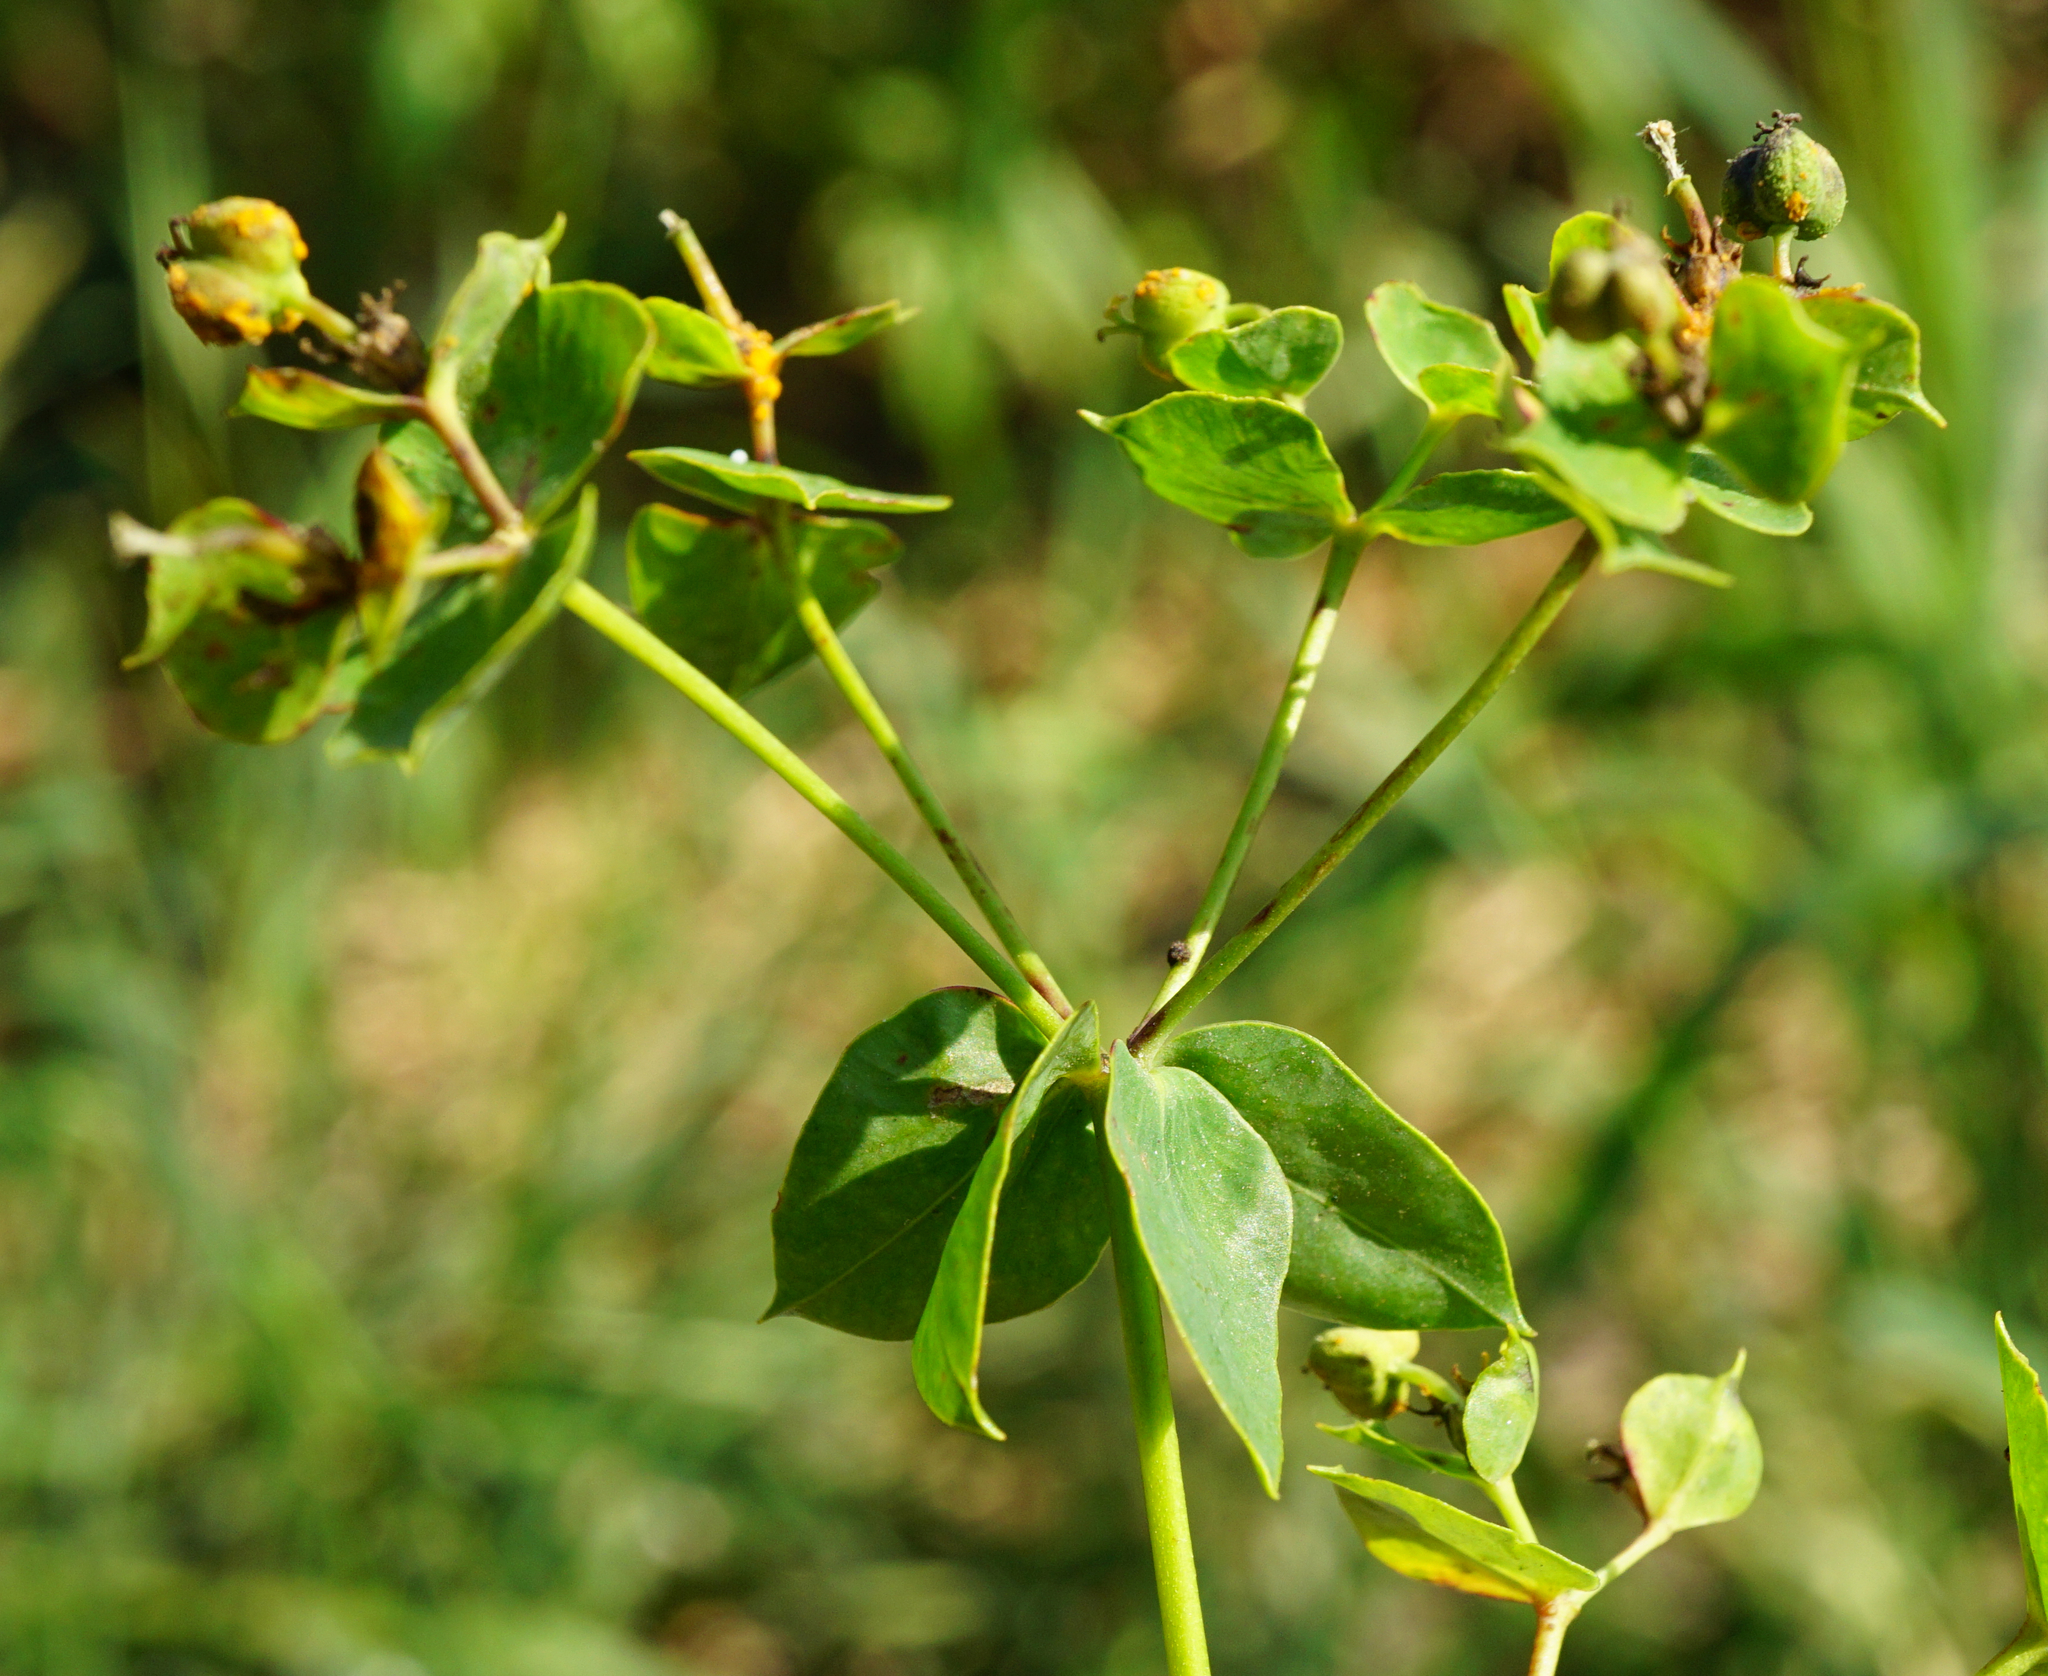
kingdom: Plantae
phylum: Tracheophyta
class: Magnoliopsida
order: Malpighiales
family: Euphorbiaceae
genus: Euphorbia
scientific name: Euphorbia virgata
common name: Leafy spurge
